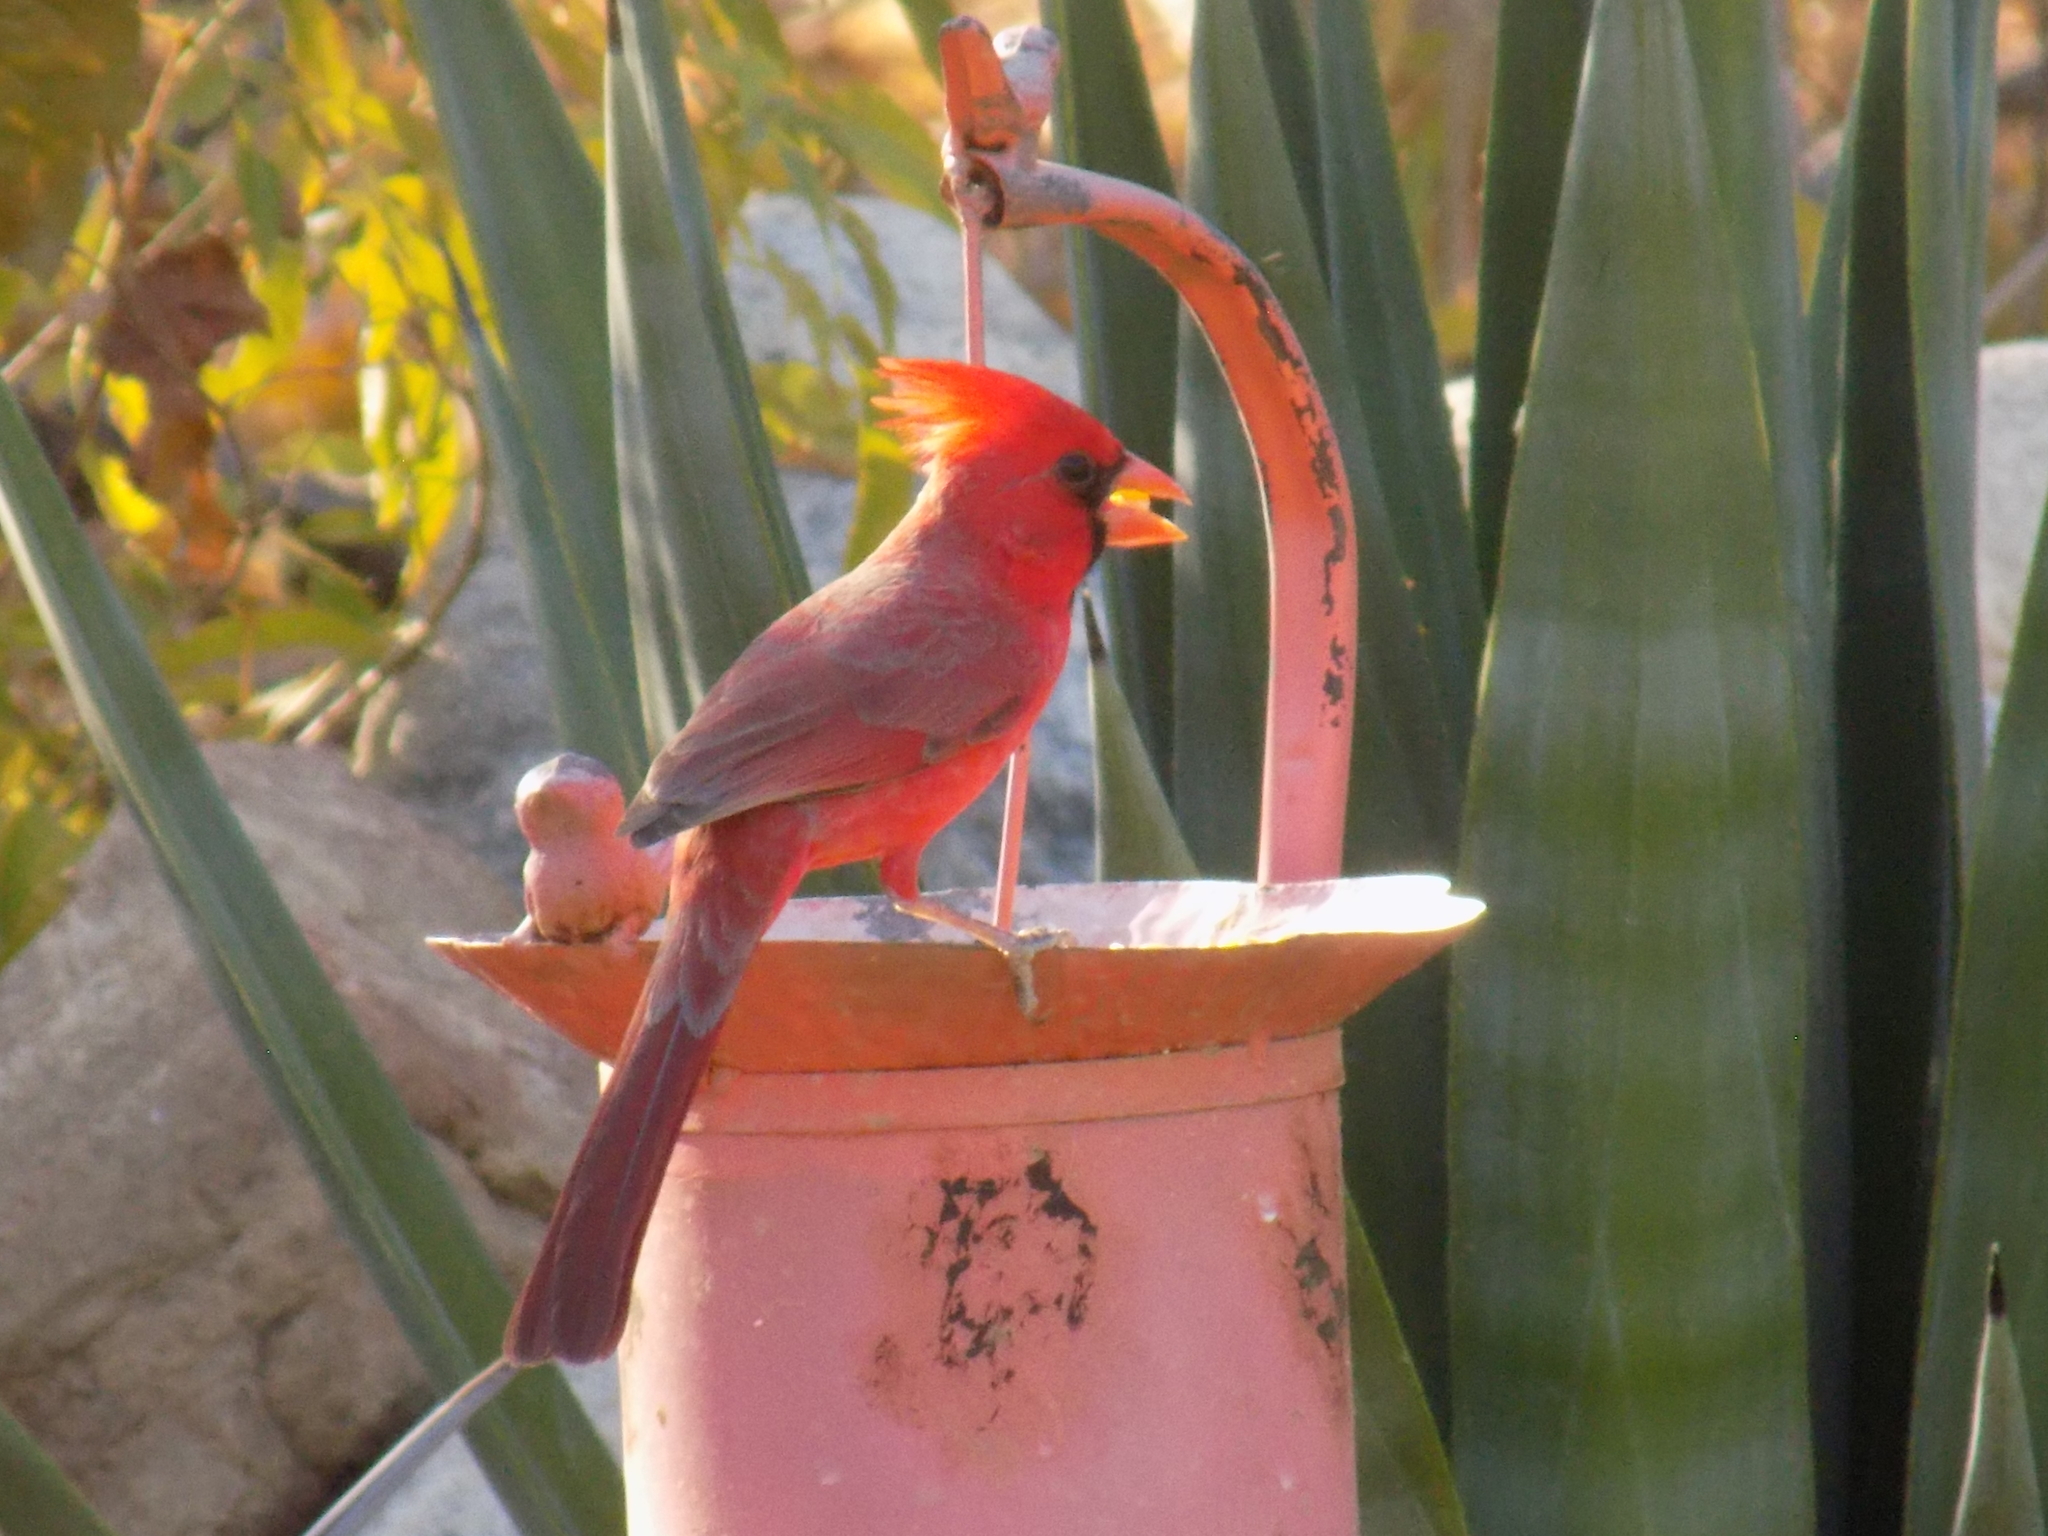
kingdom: Animalia
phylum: Chordata
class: Aves
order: Passeriformes
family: Cardinalidae
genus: Cardinalis
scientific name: Cardinalis cardinalis
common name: Northern cardinal
